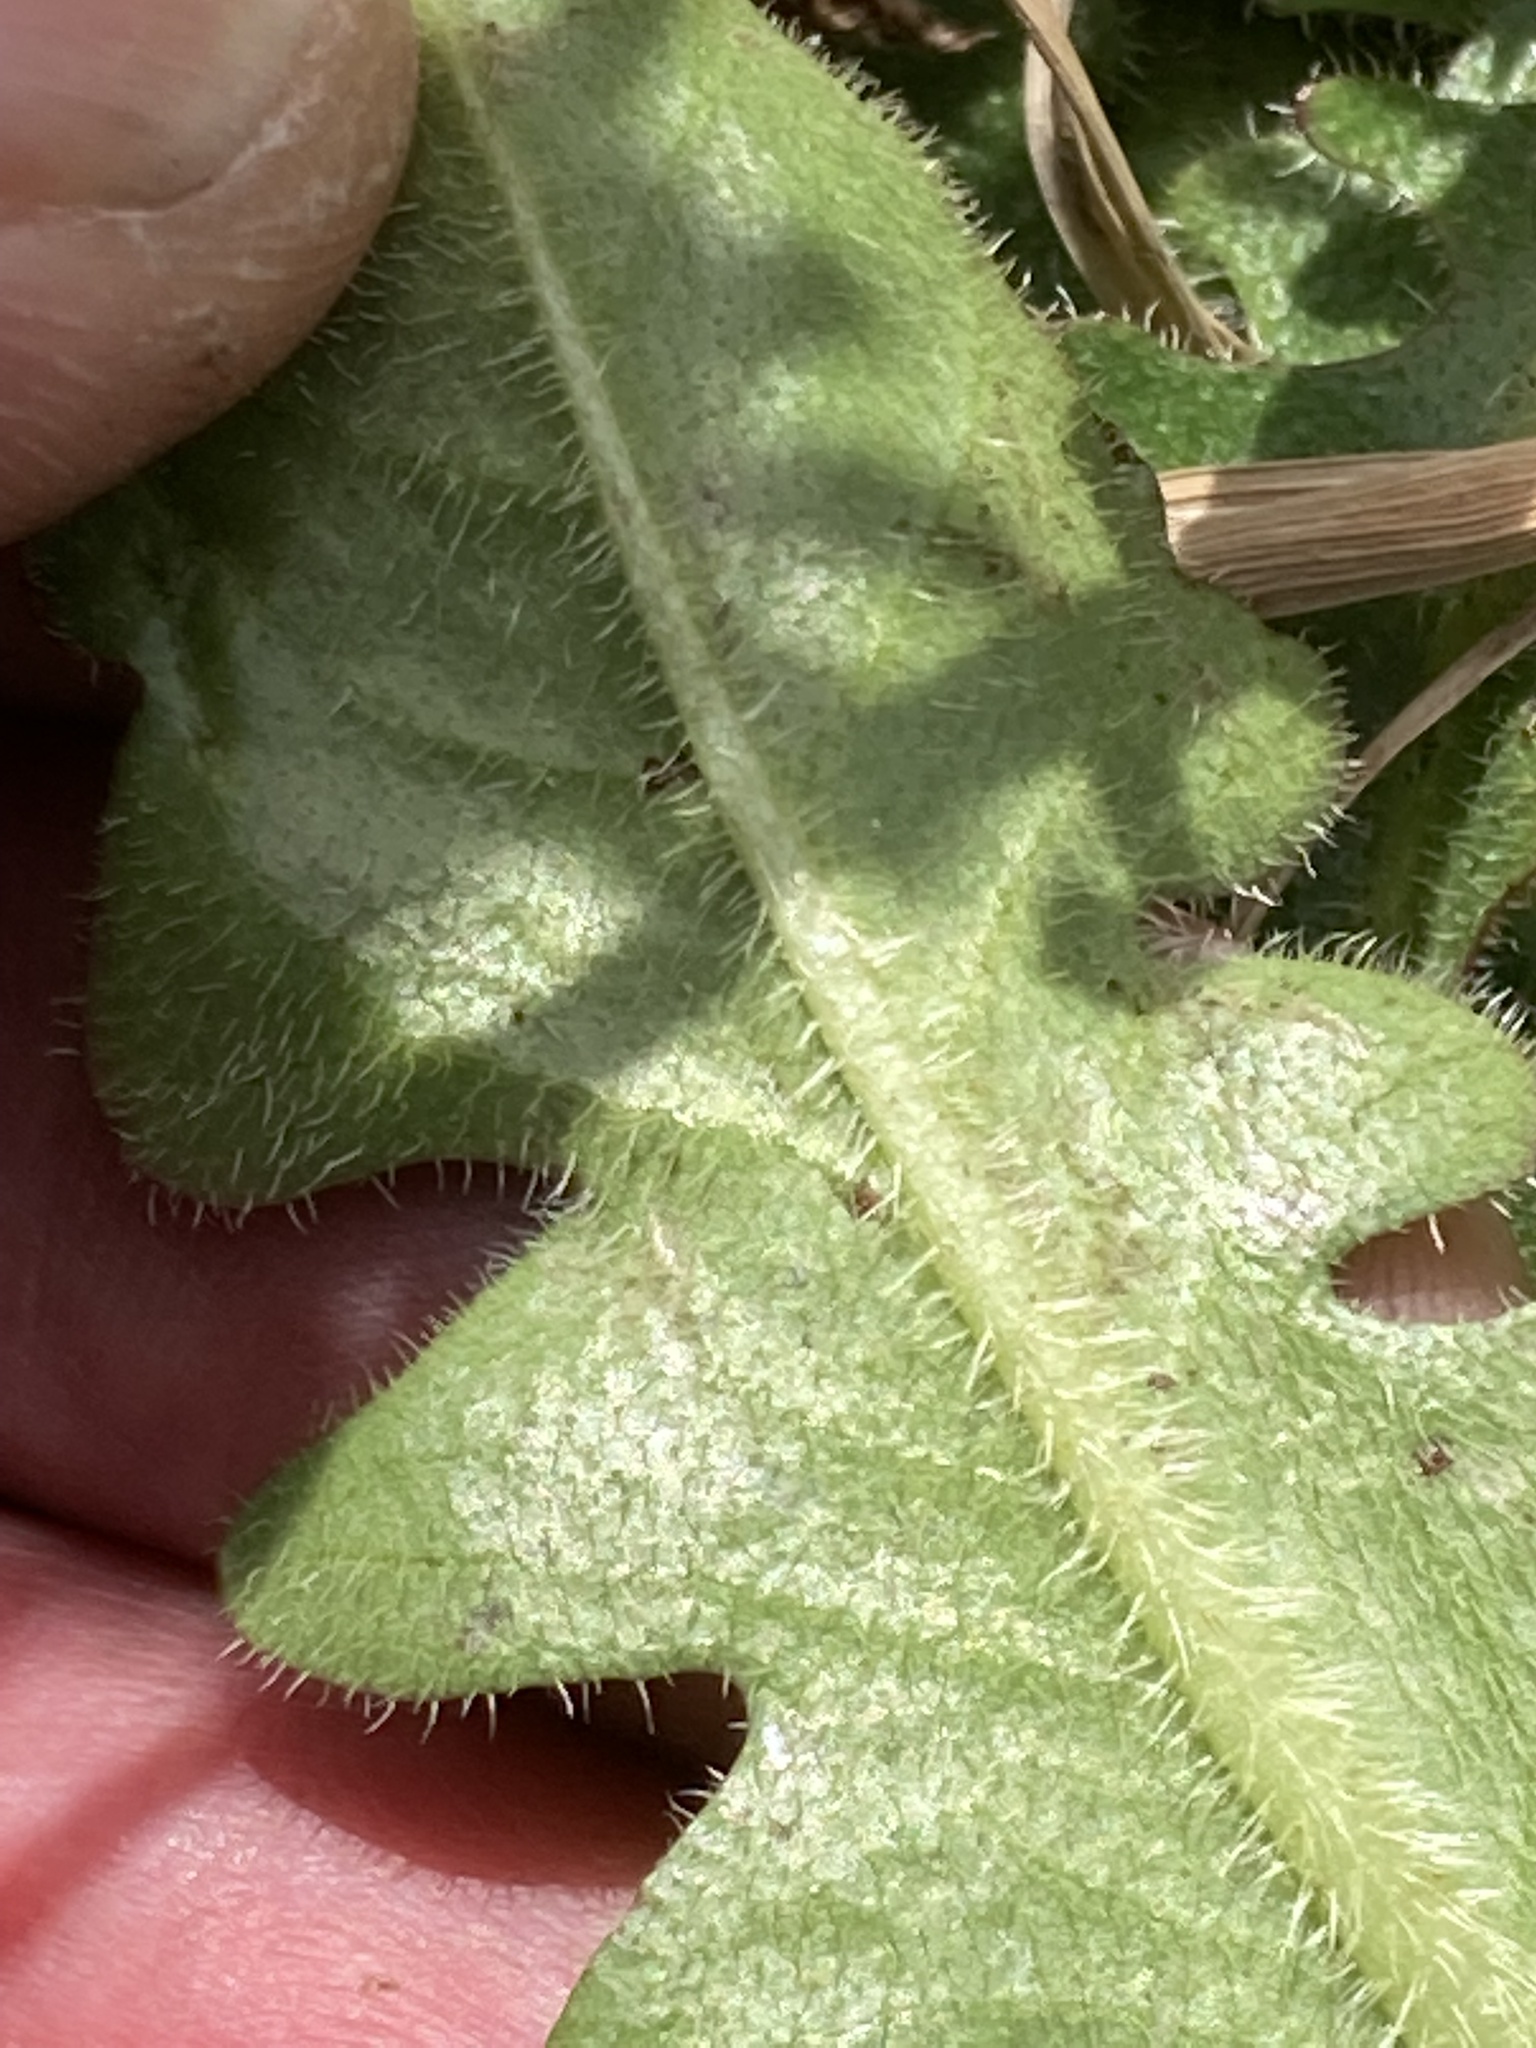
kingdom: Plantae
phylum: Tracheophyta
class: Magnoliopsida
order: Asterales
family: Asteraceae
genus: Hypochaeris
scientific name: Hypochaeris radicata
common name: Flatweed
